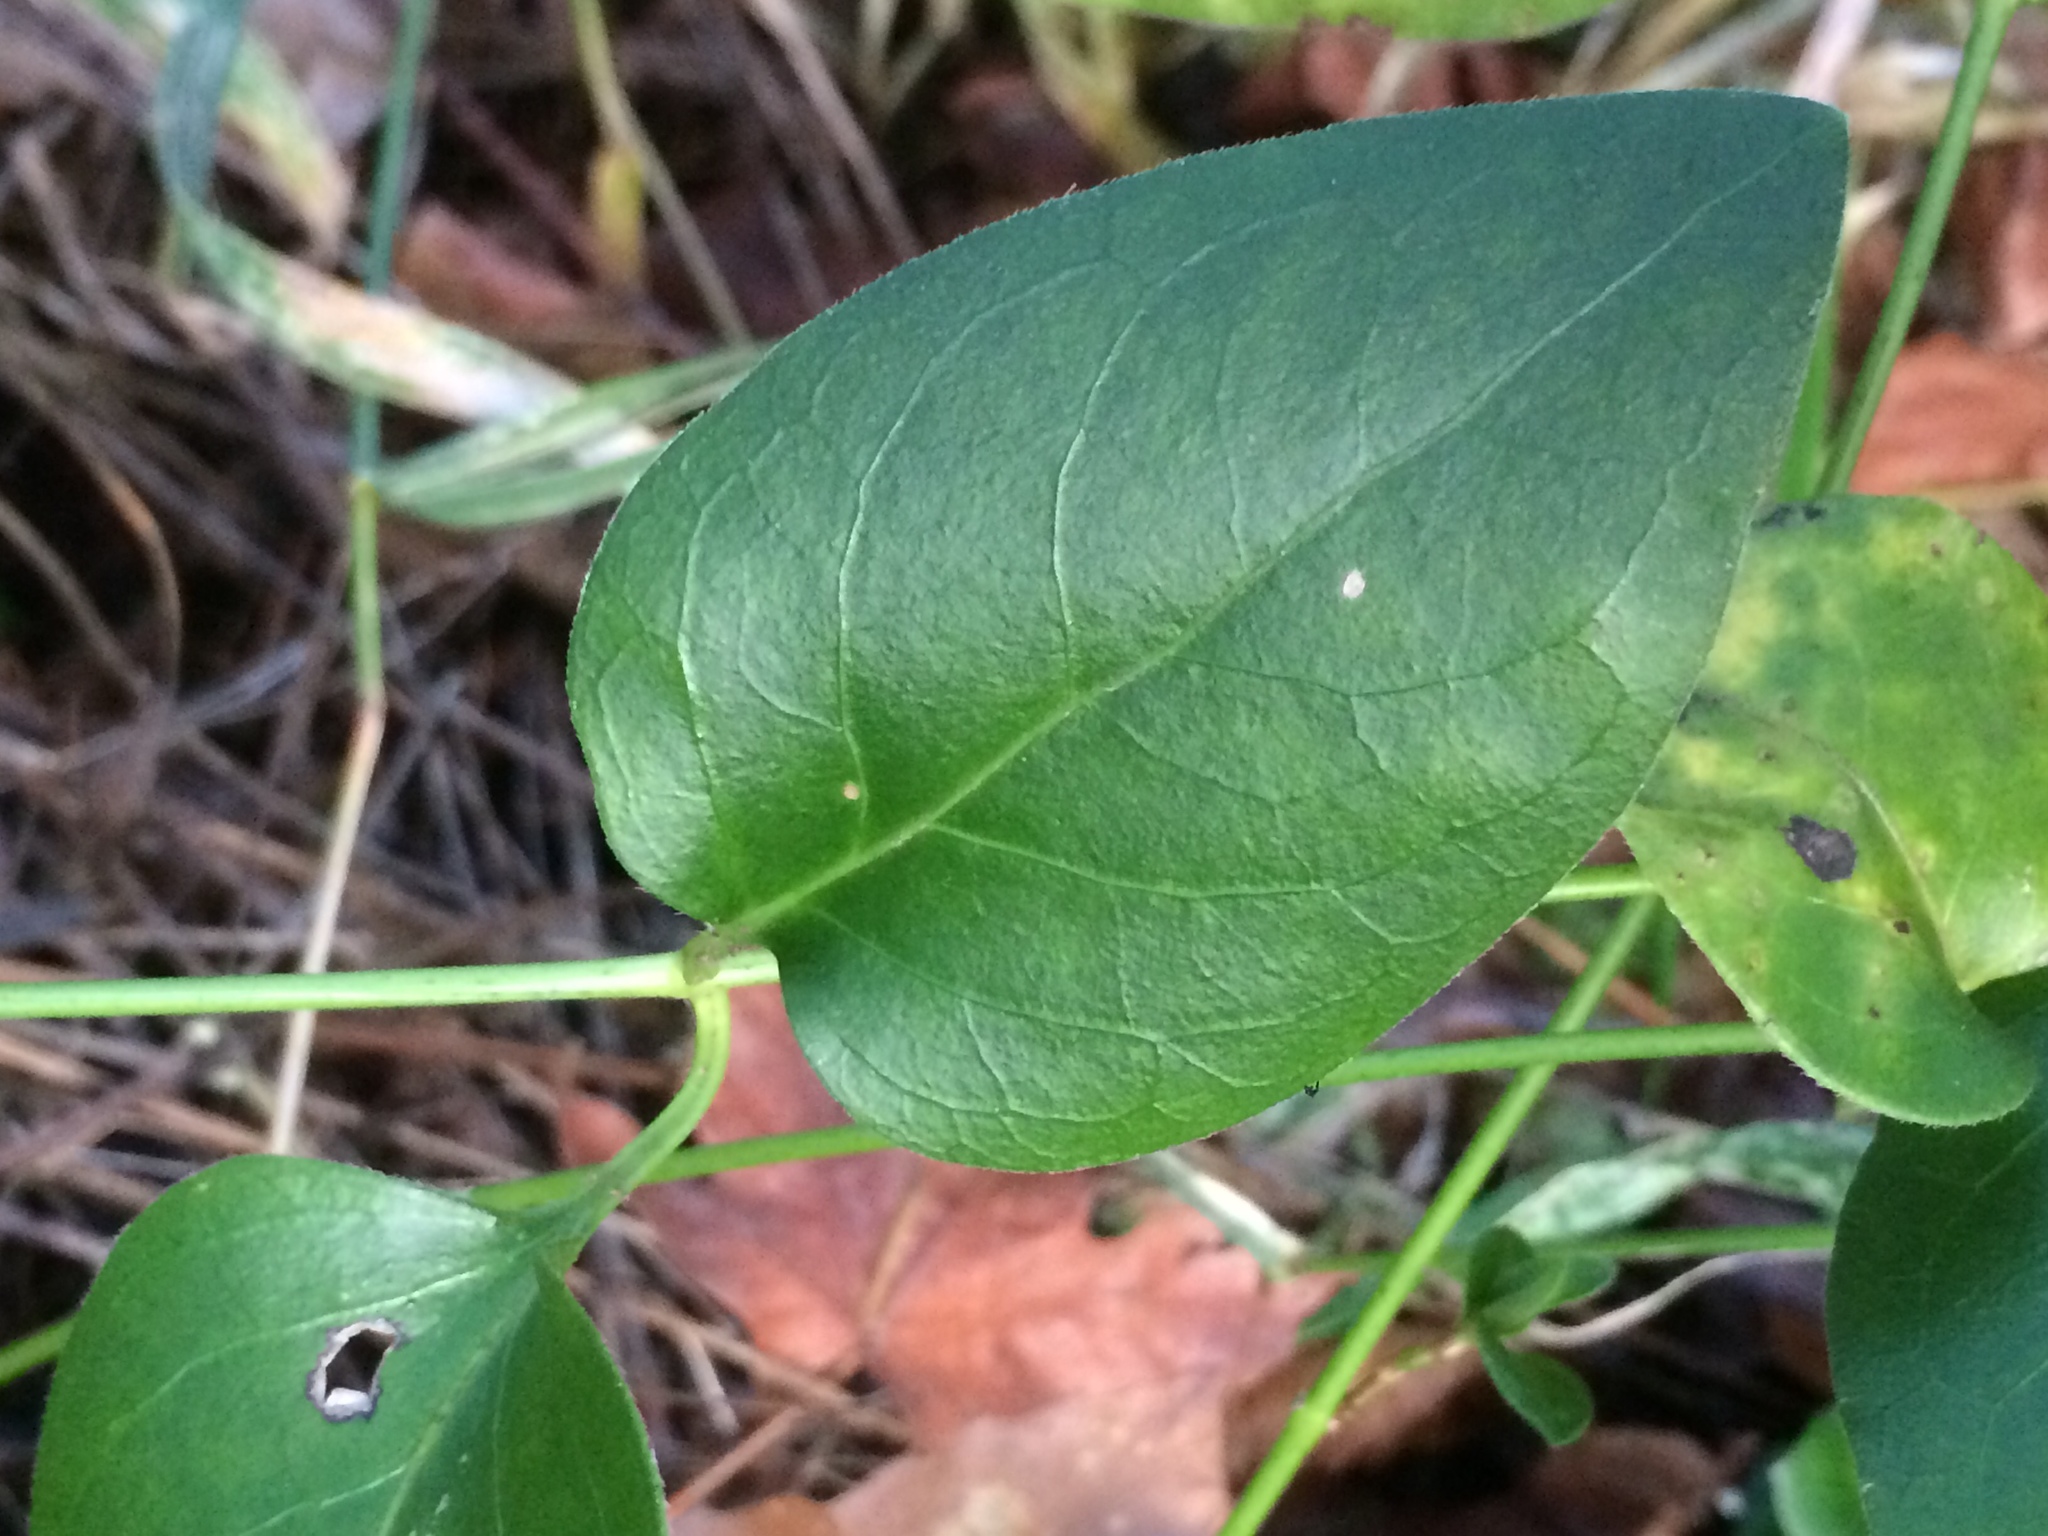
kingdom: Plantae
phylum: Tracheophyta
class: Magnoliopsida
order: Gentianales
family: Apocynaceae
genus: Vinca
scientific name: Vinca major
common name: Greater periwinkle
